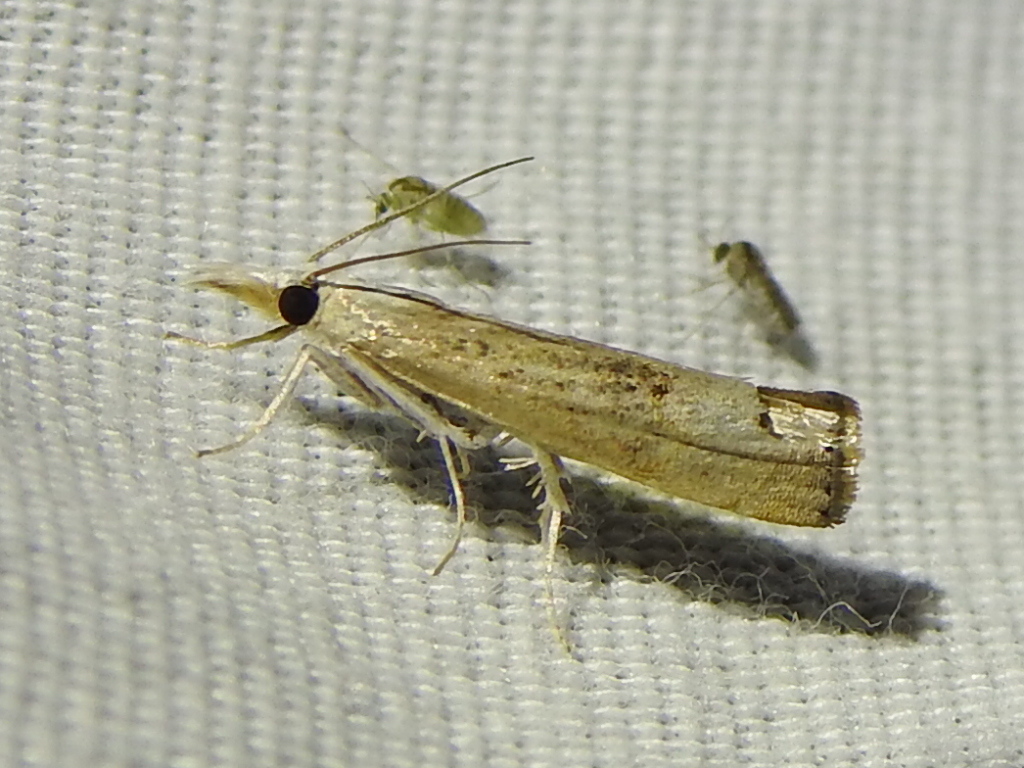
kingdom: Animalia
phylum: Arthropoda
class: Insecta
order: Lepidoptera
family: Crambidae
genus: Parapediasia
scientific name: Parapediasia teterellus
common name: Bluegrass webworm moth
